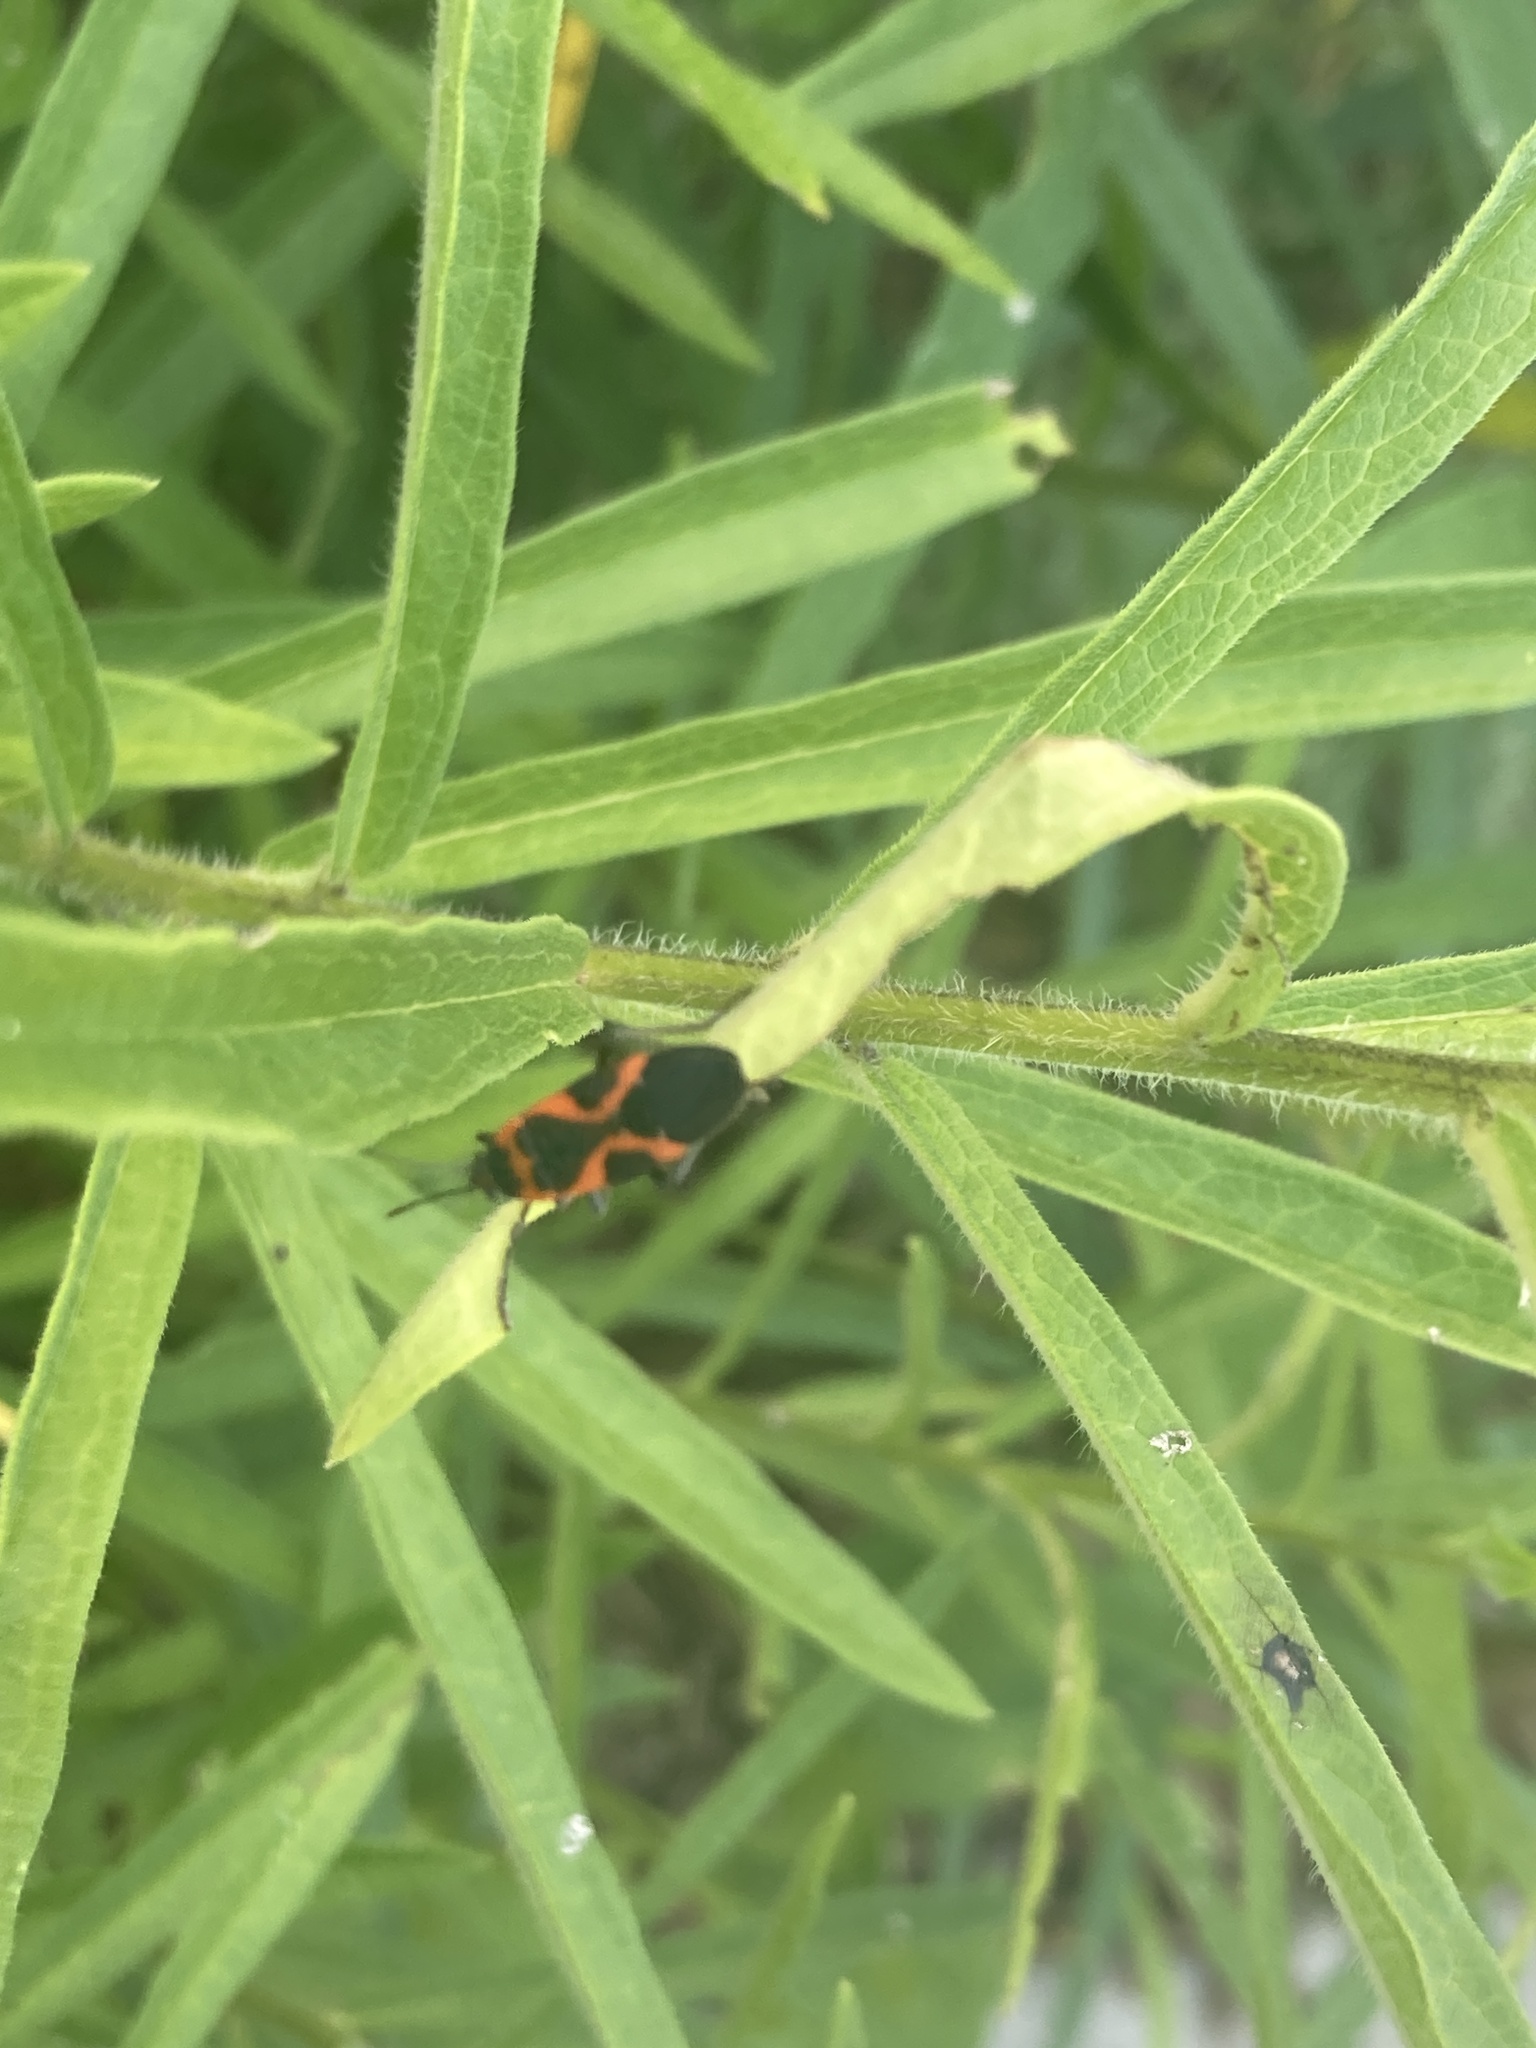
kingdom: Animalia
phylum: Arthropoda
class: Insecta
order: Hemiptera
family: Lygaeidae
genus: Lygaeus
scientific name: Lygaeus kalmii
